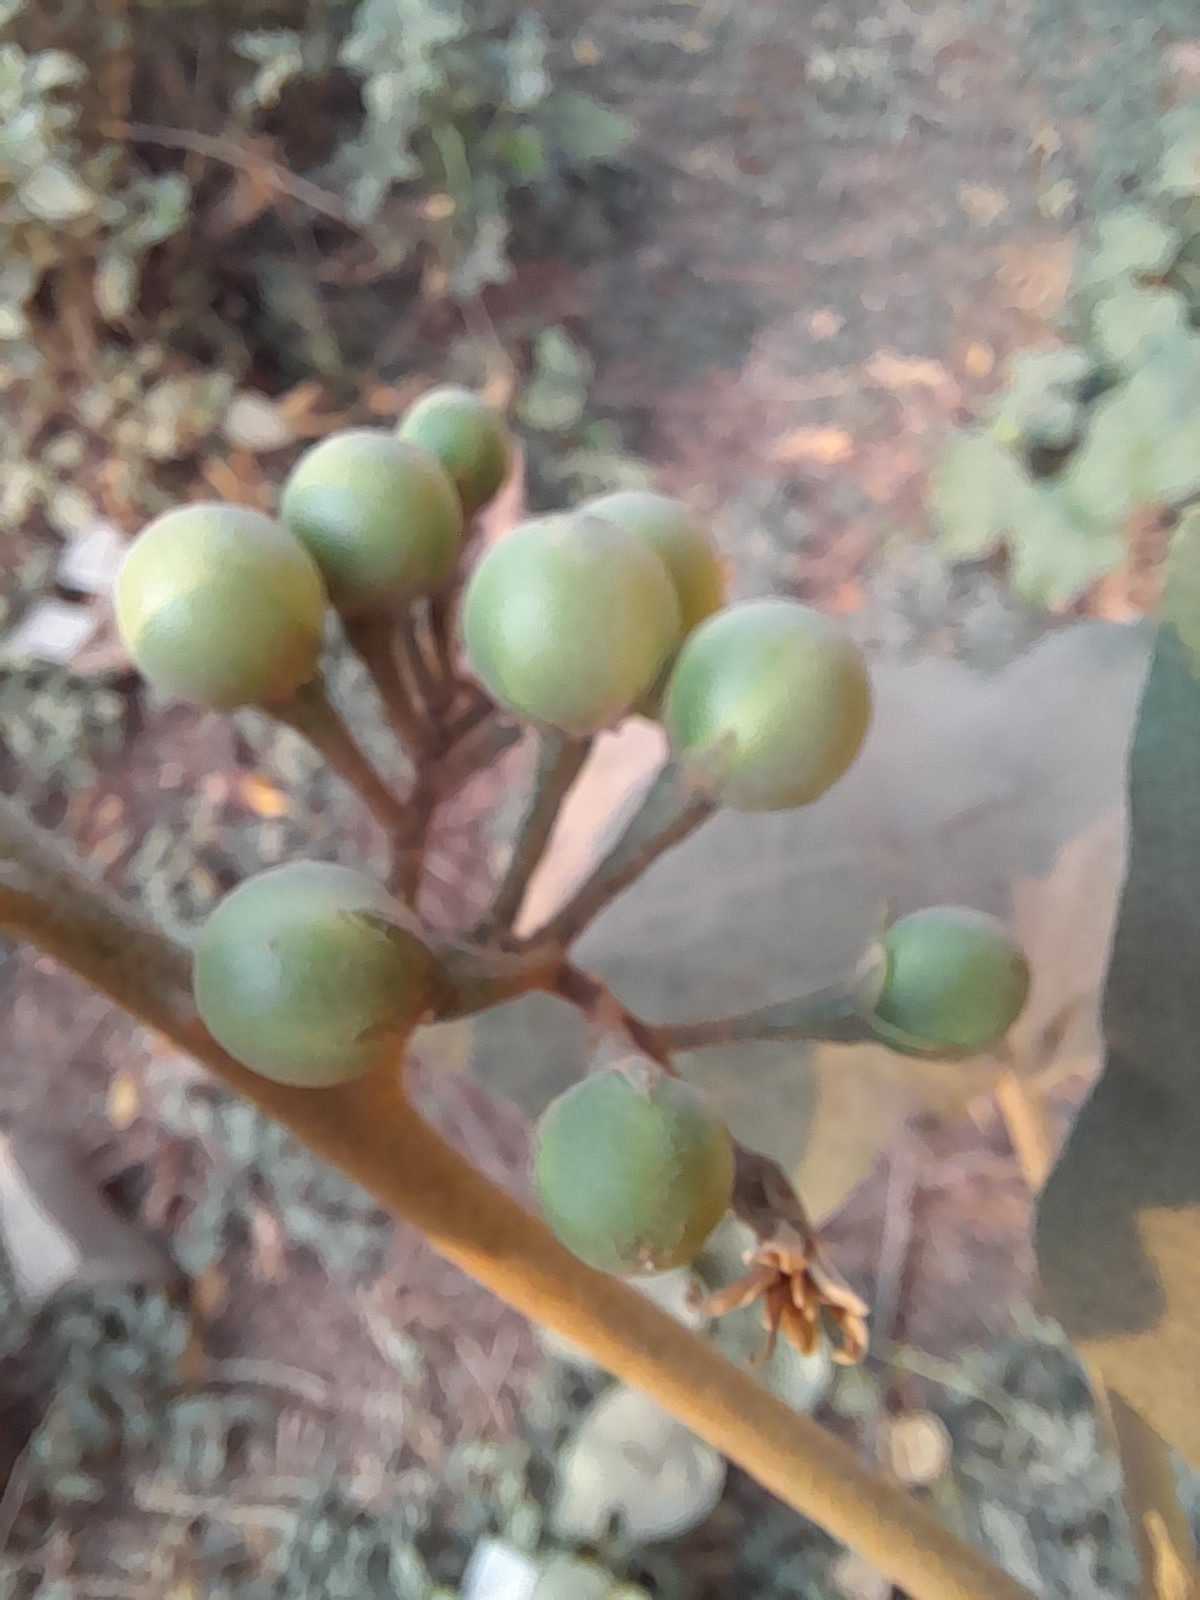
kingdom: Plantae
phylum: Tracheophyta
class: Magnoliopsida
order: Solanales
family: Solanaceae
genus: Solanum
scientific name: Solanum torvum
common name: Turkey berry
